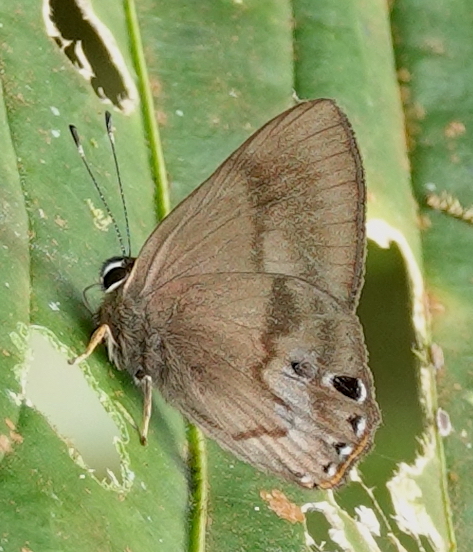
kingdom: Animalia
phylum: Arthropoda
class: Insecta
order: Lepidoptera
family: Riodinidae
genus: Methone
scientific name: Methone
